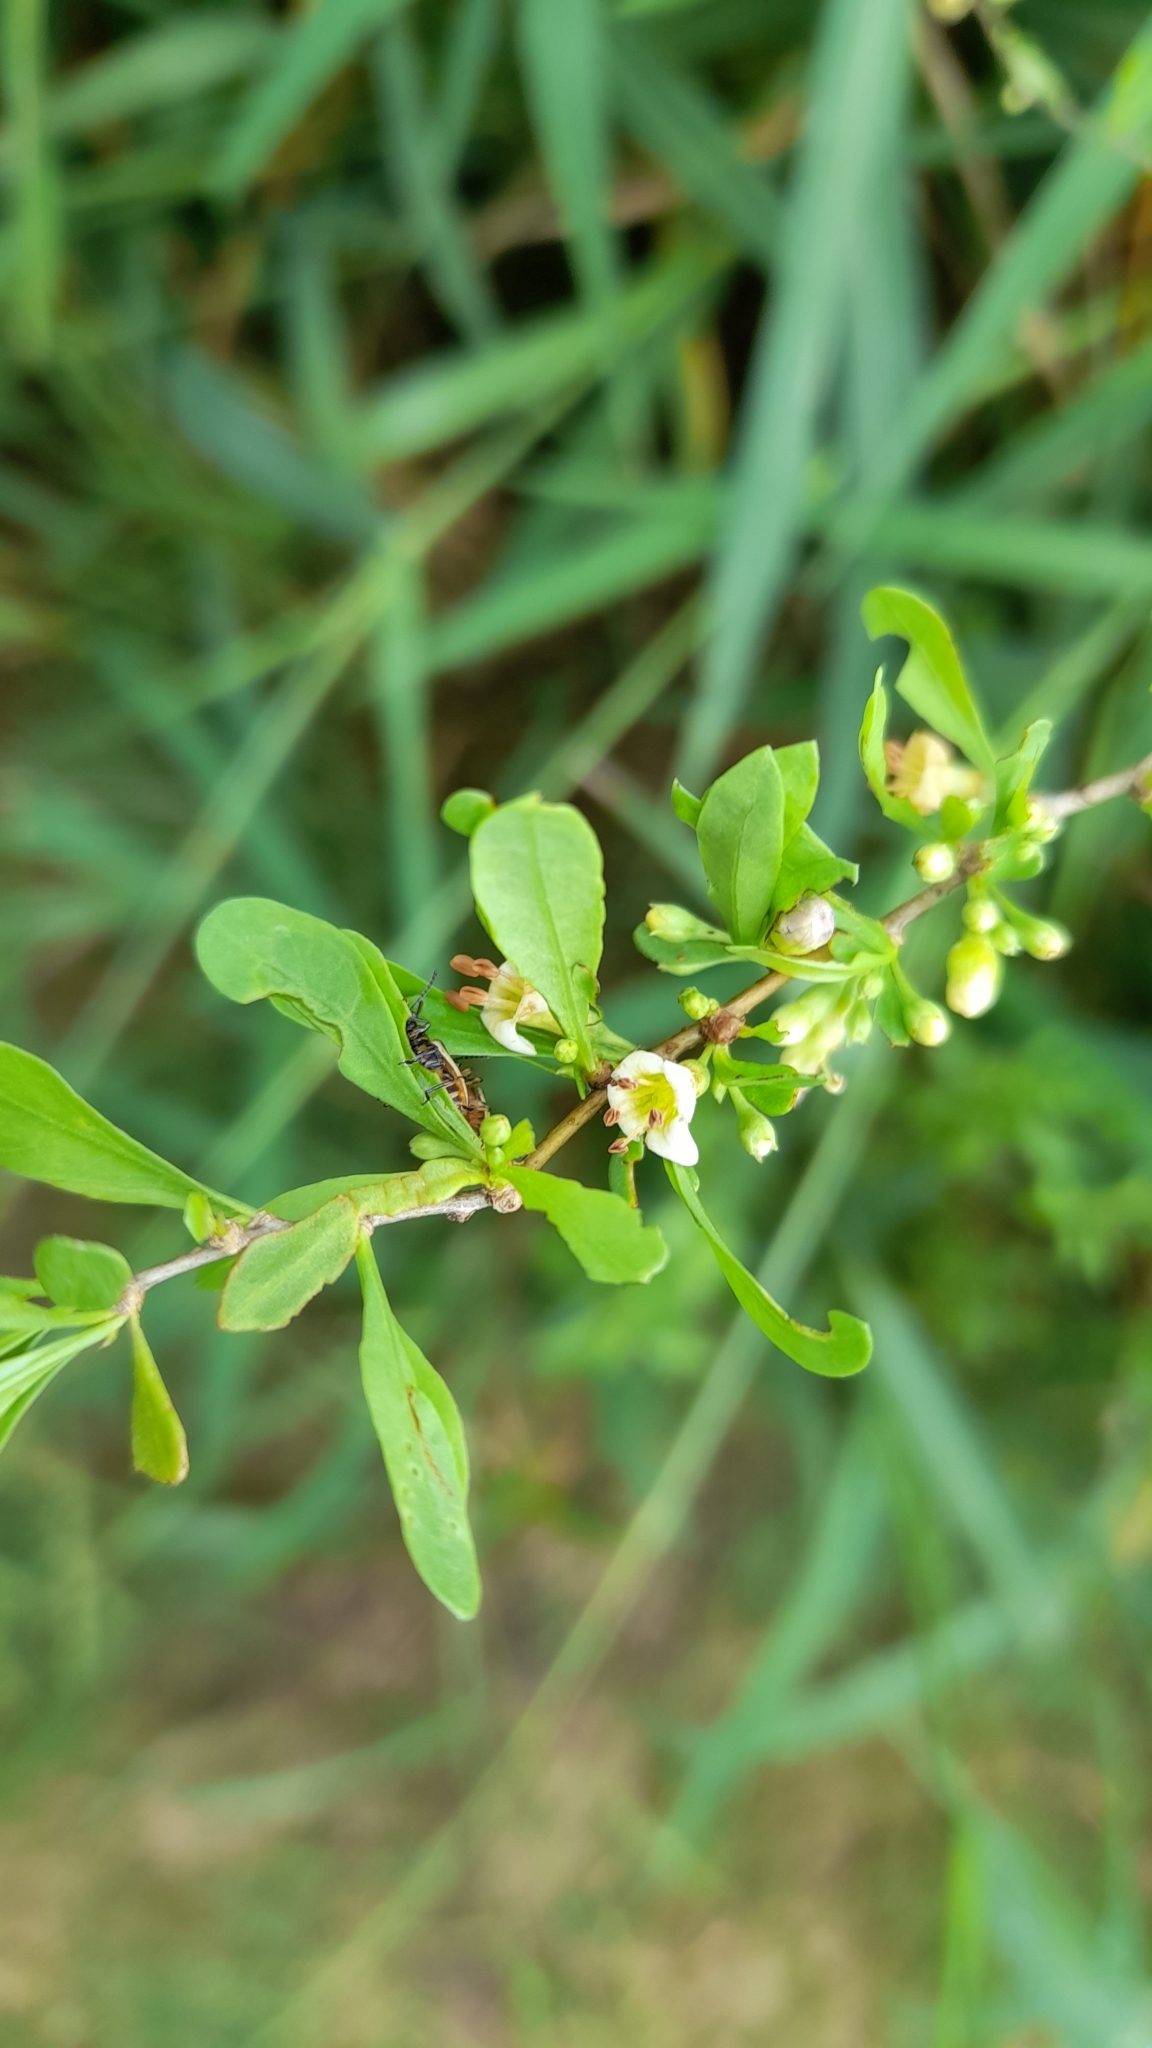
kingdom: Plantae
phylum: Tracheophyta
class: Magnoliopsida
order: Solanales
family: Solanaceae
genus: Lycium
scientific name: Lycium vimineum
